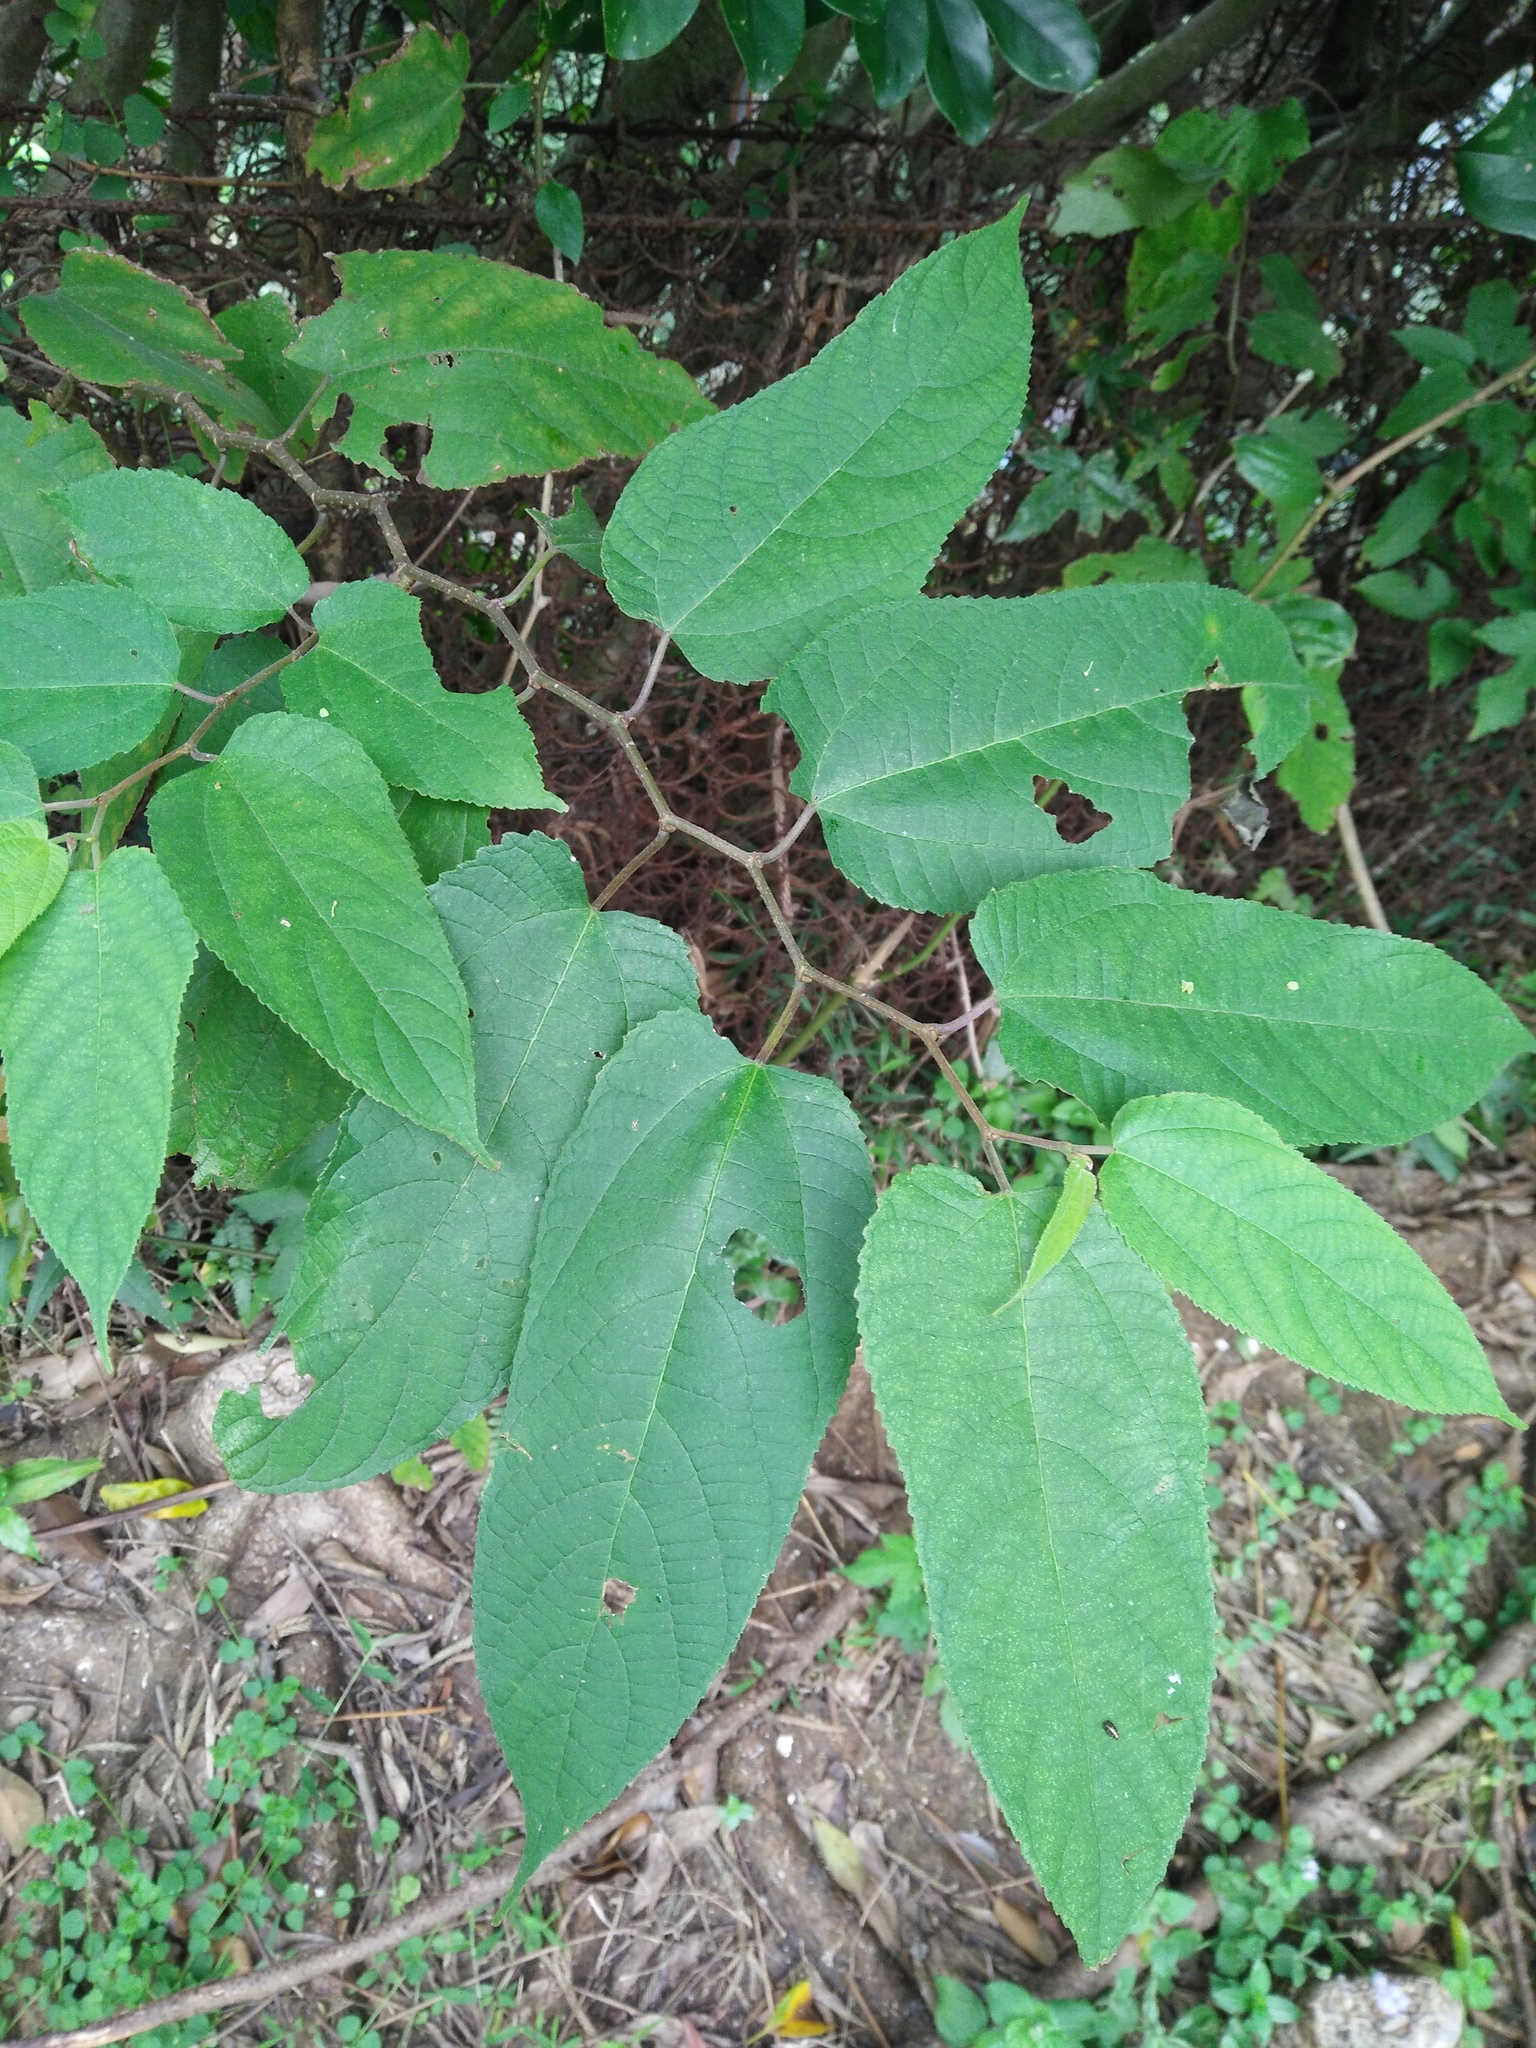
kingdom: Plantae
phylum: Tracheophyta
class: Magnoliopsida
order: Rosales
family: Moraceae
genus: Broussonetia
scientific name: Broussonetia monoica
